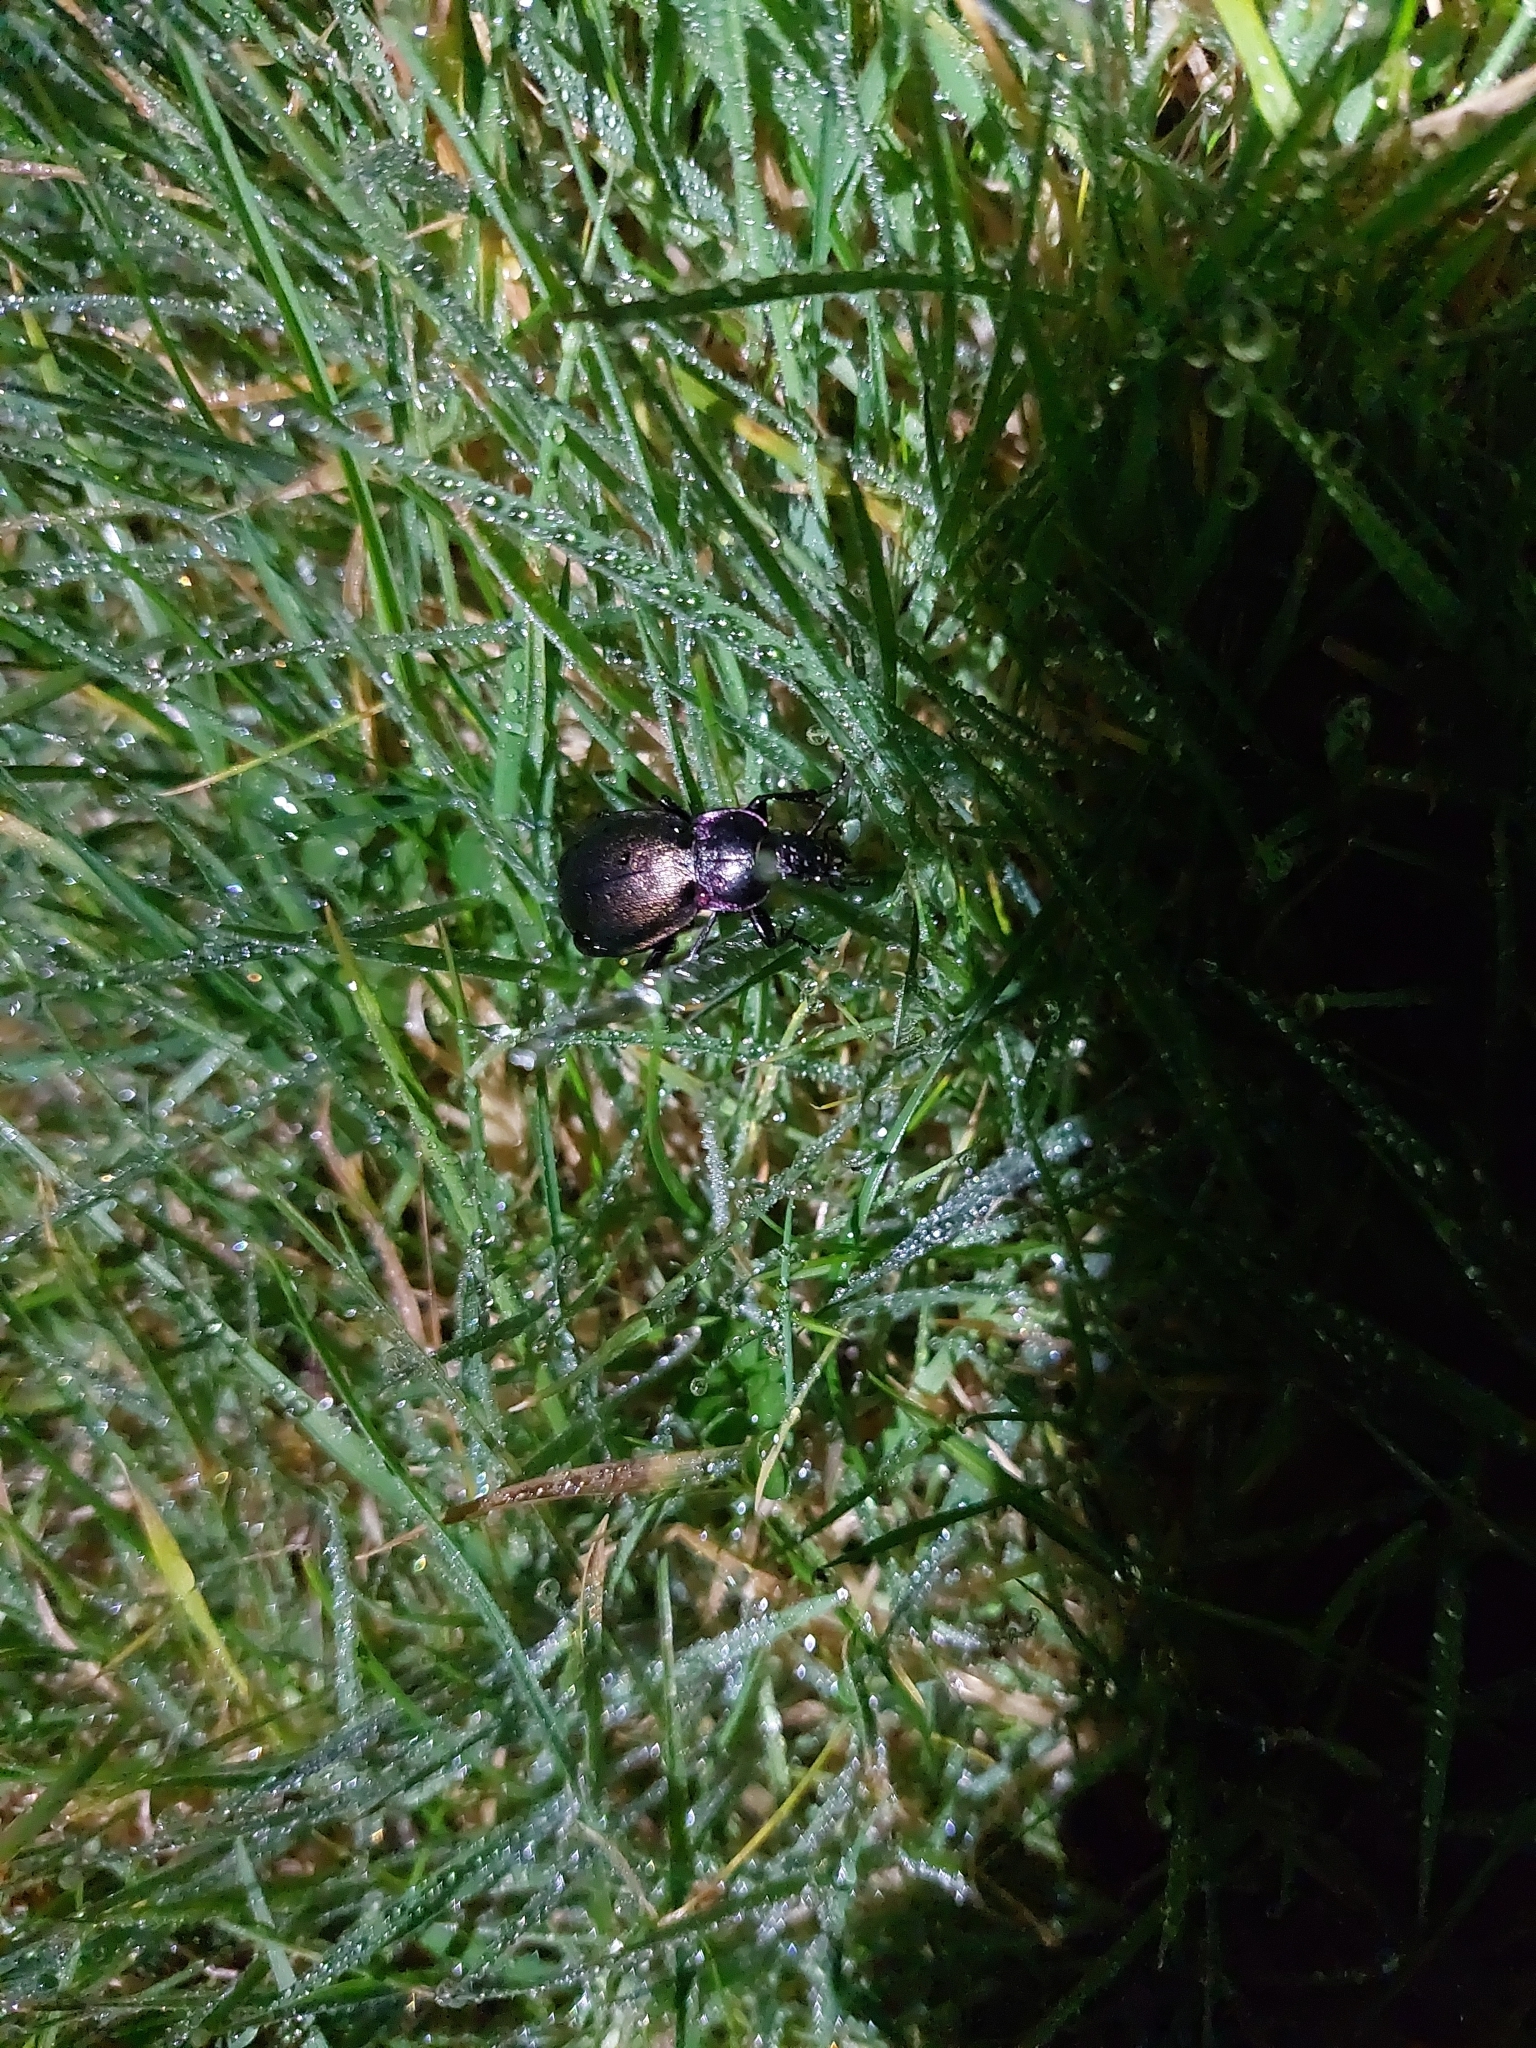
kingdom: Animalia
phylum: Arthropoda
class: Insecta
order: Coleoptera
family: Carabidae
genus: Carabus
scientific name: Carabus nemoralis
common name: European ground beetle
